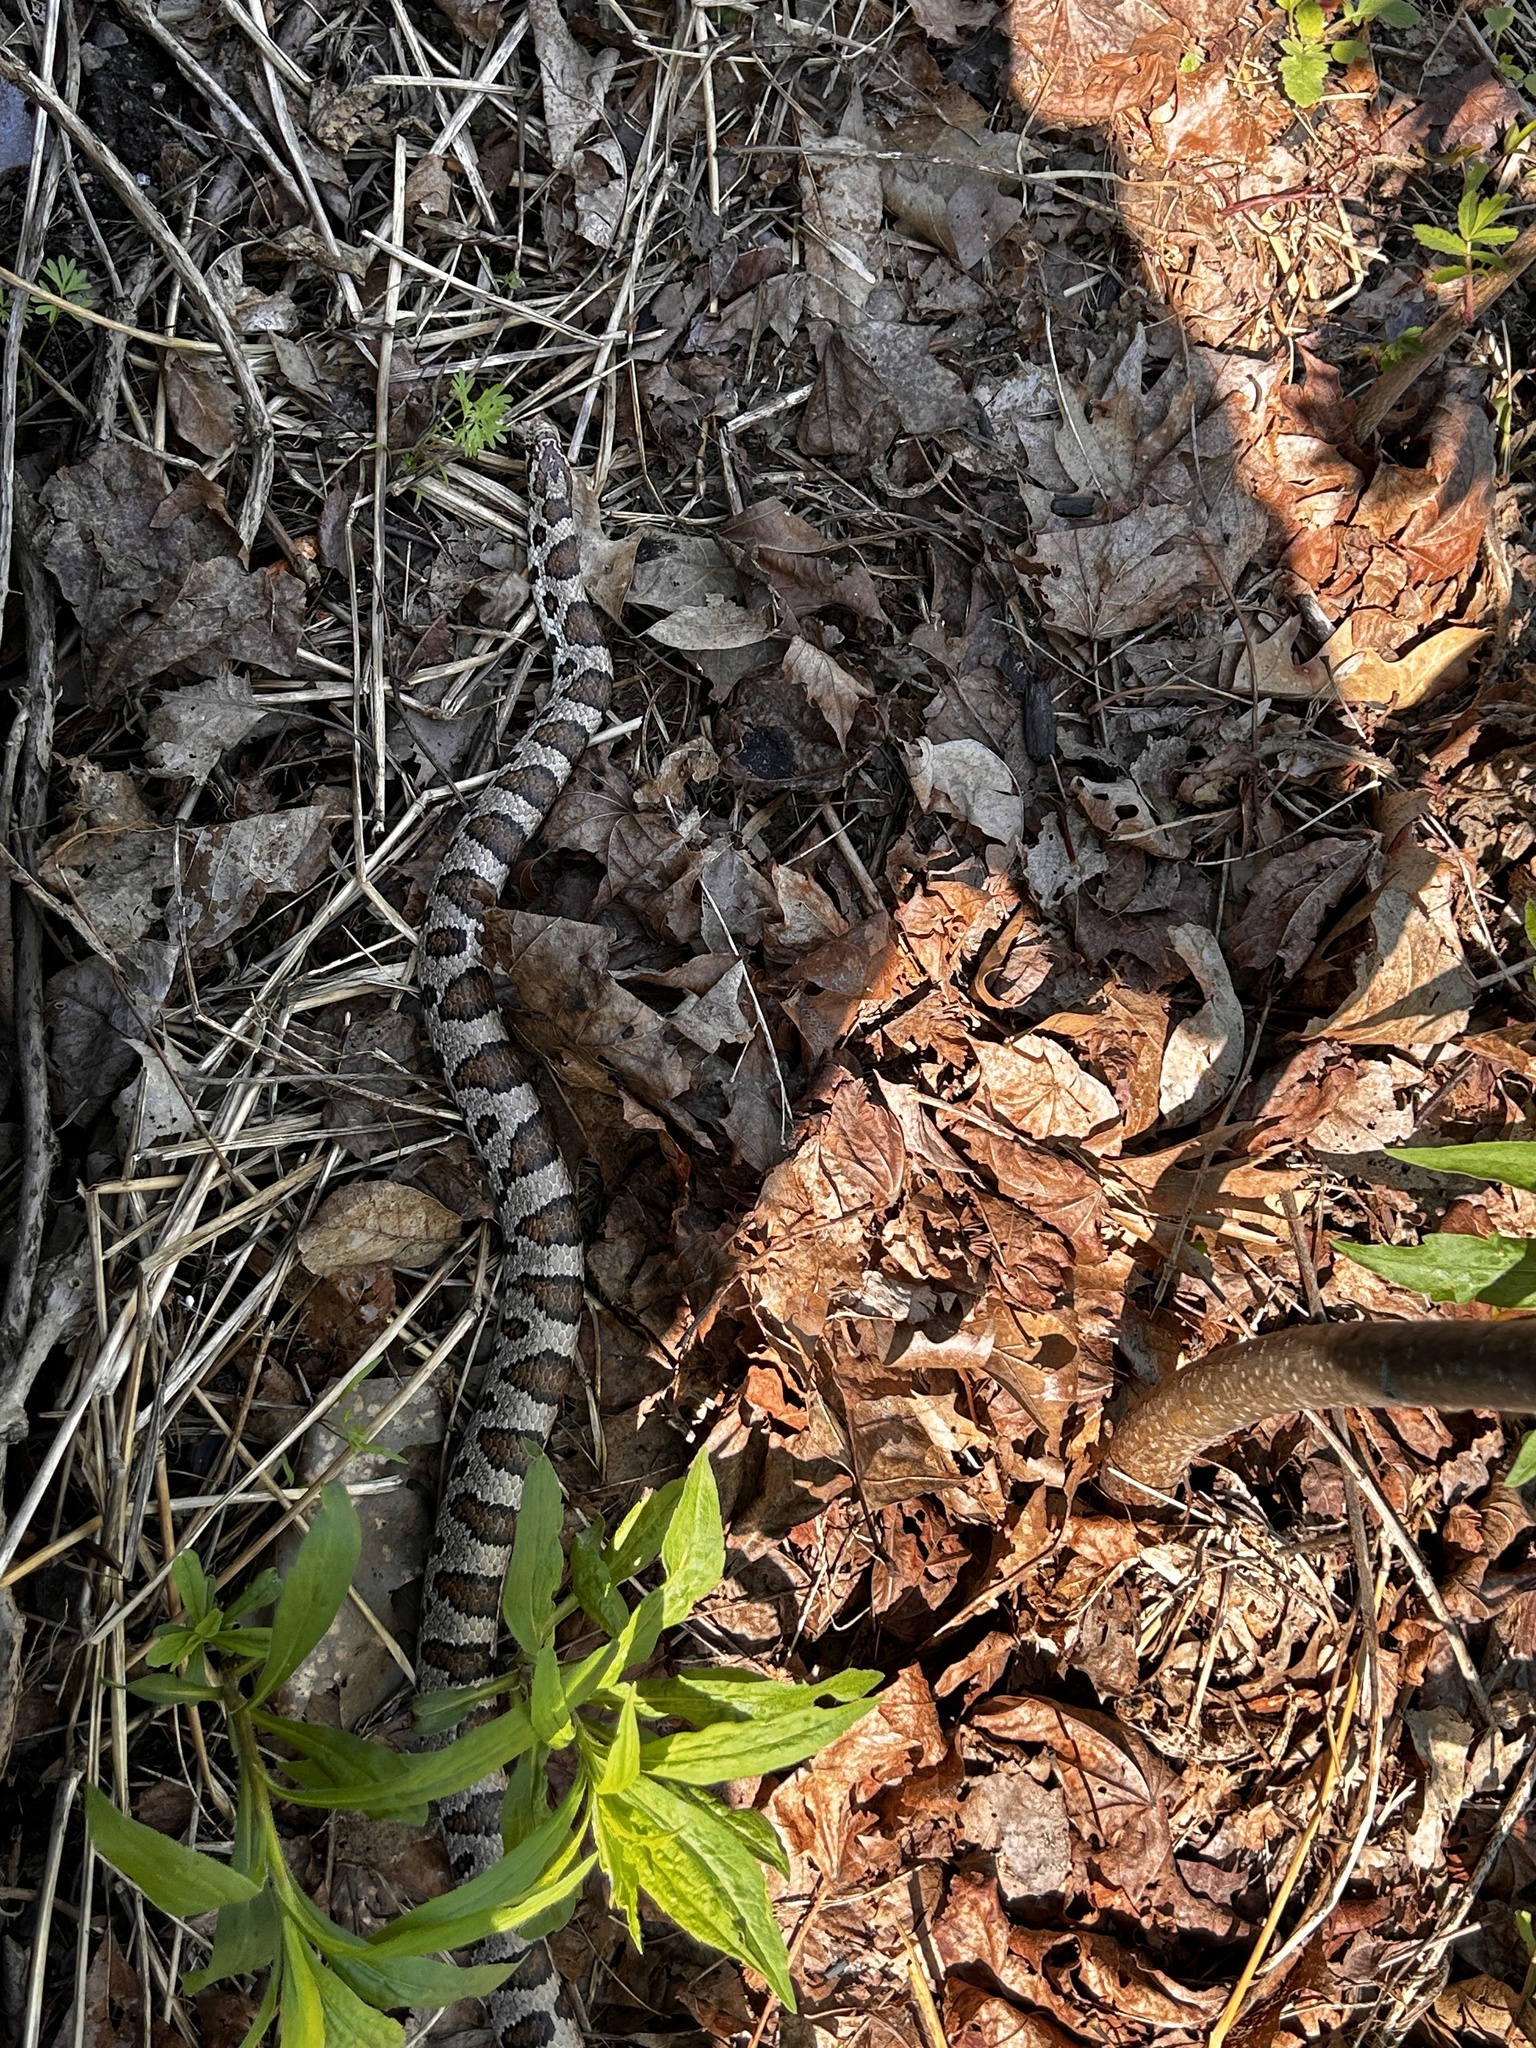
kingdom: Animalia
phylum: Chordata
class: Squamata
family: Colubridae
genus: Lampropeltis
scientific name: Lampropeltis triangulum
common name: Eastern milksnake
